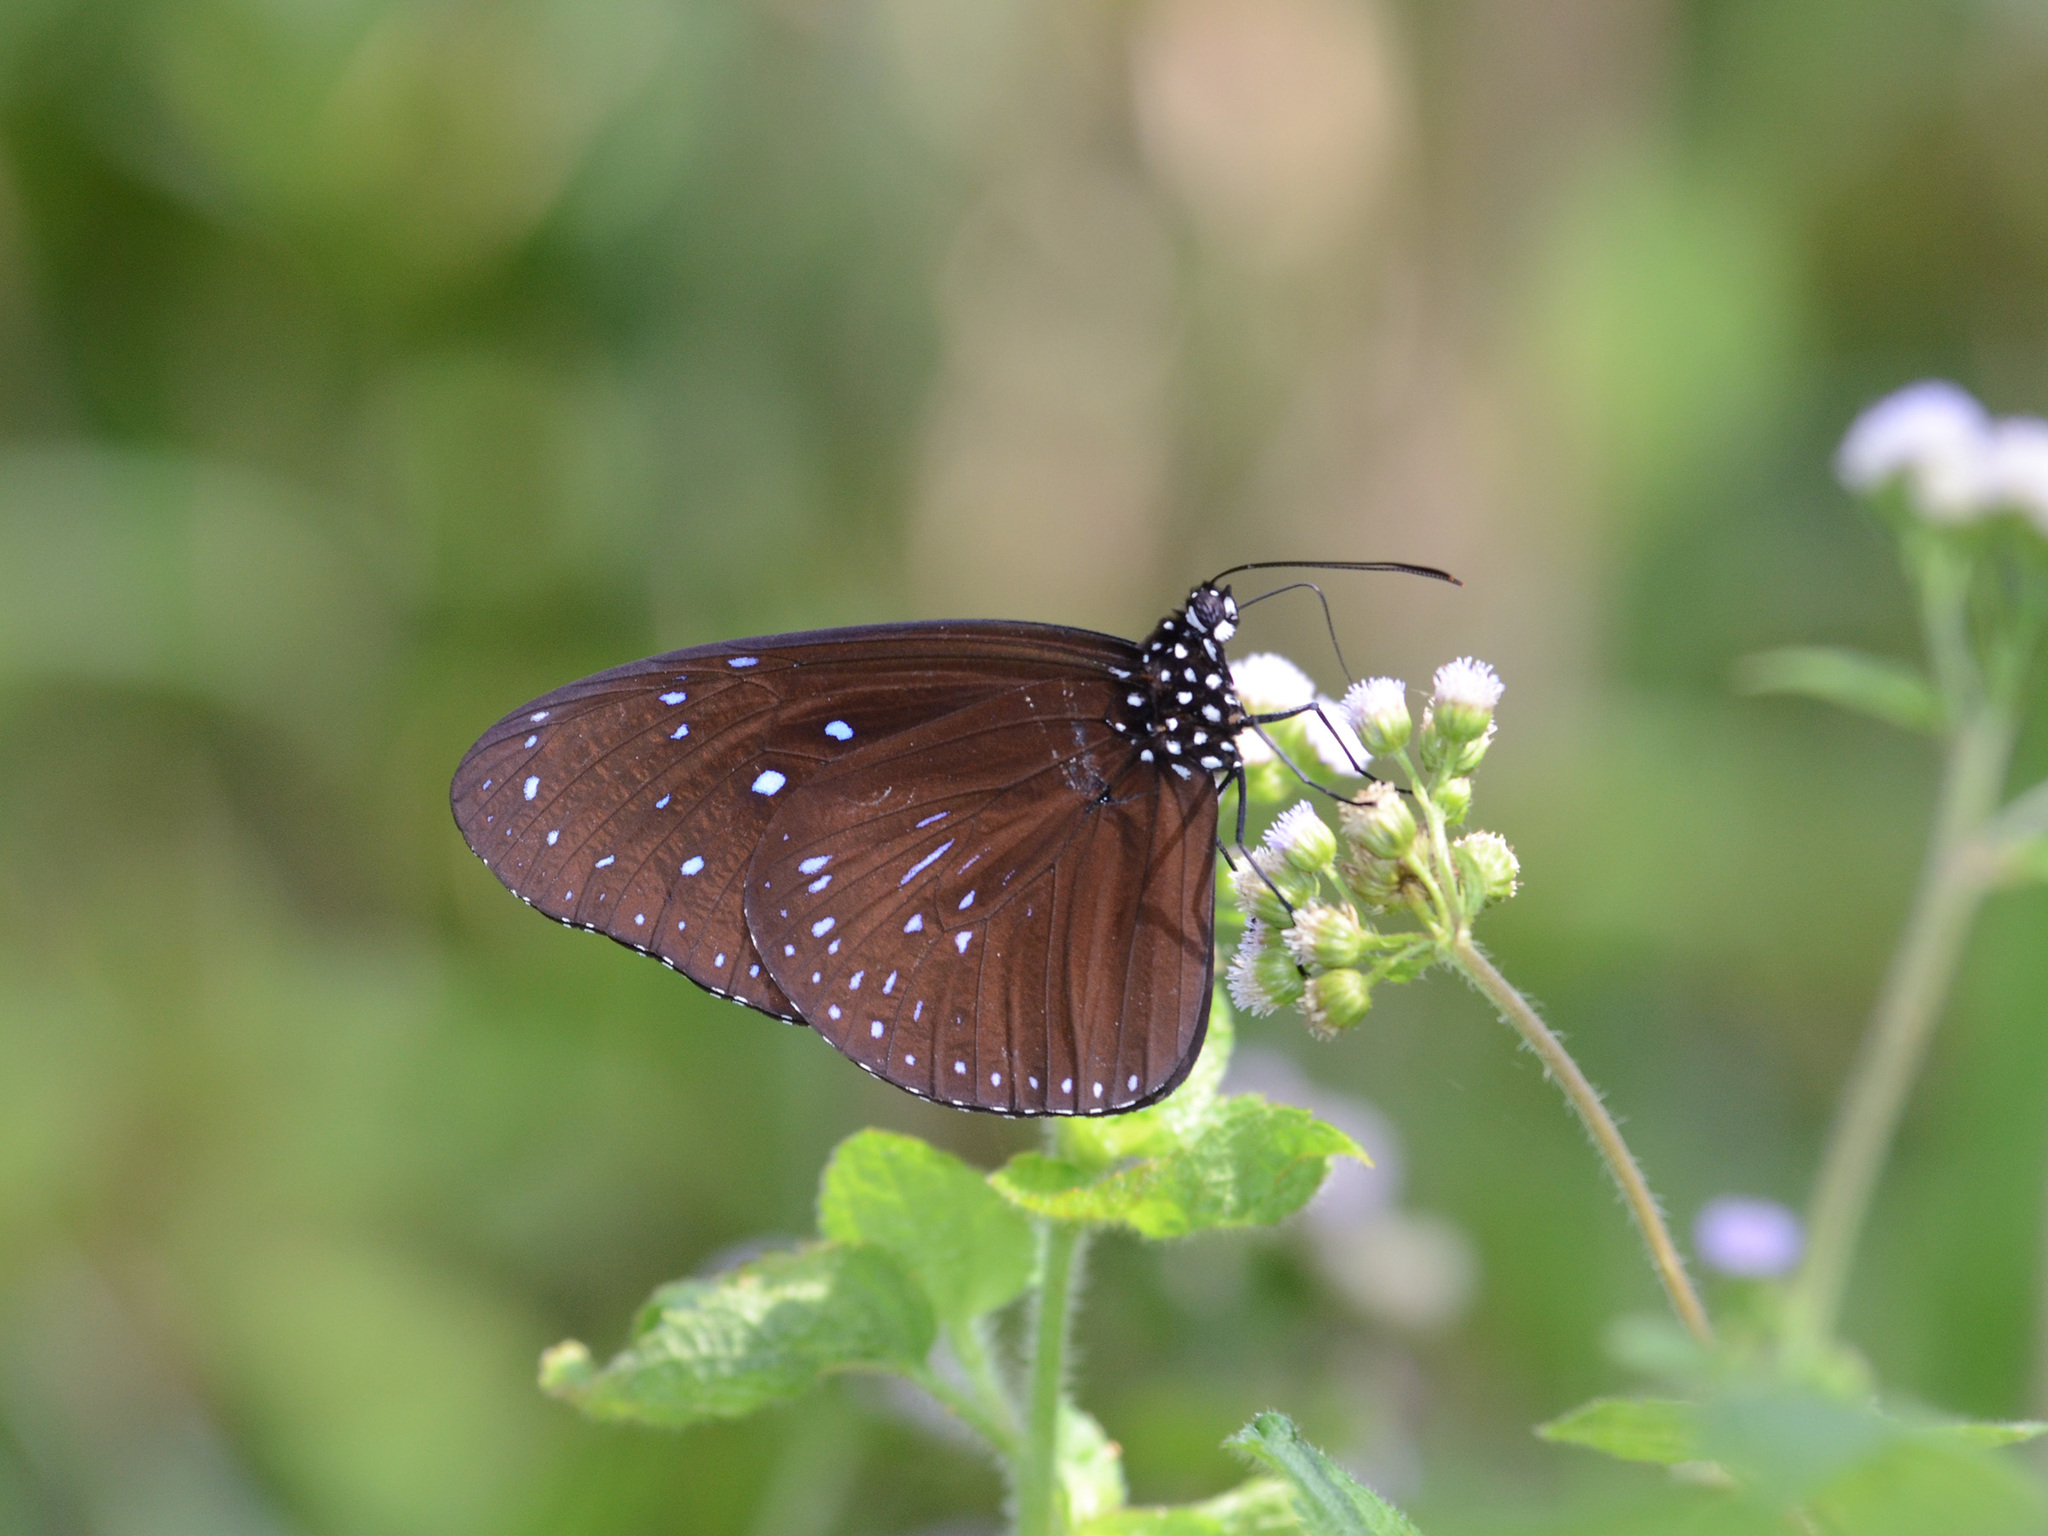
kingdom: Animalia
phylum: Arthropoda
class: Insecta
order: Lepidoptera
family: Nymphalidae
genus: Euploea
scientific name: Euploea mulciber
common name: Striped blue crow butterfly
